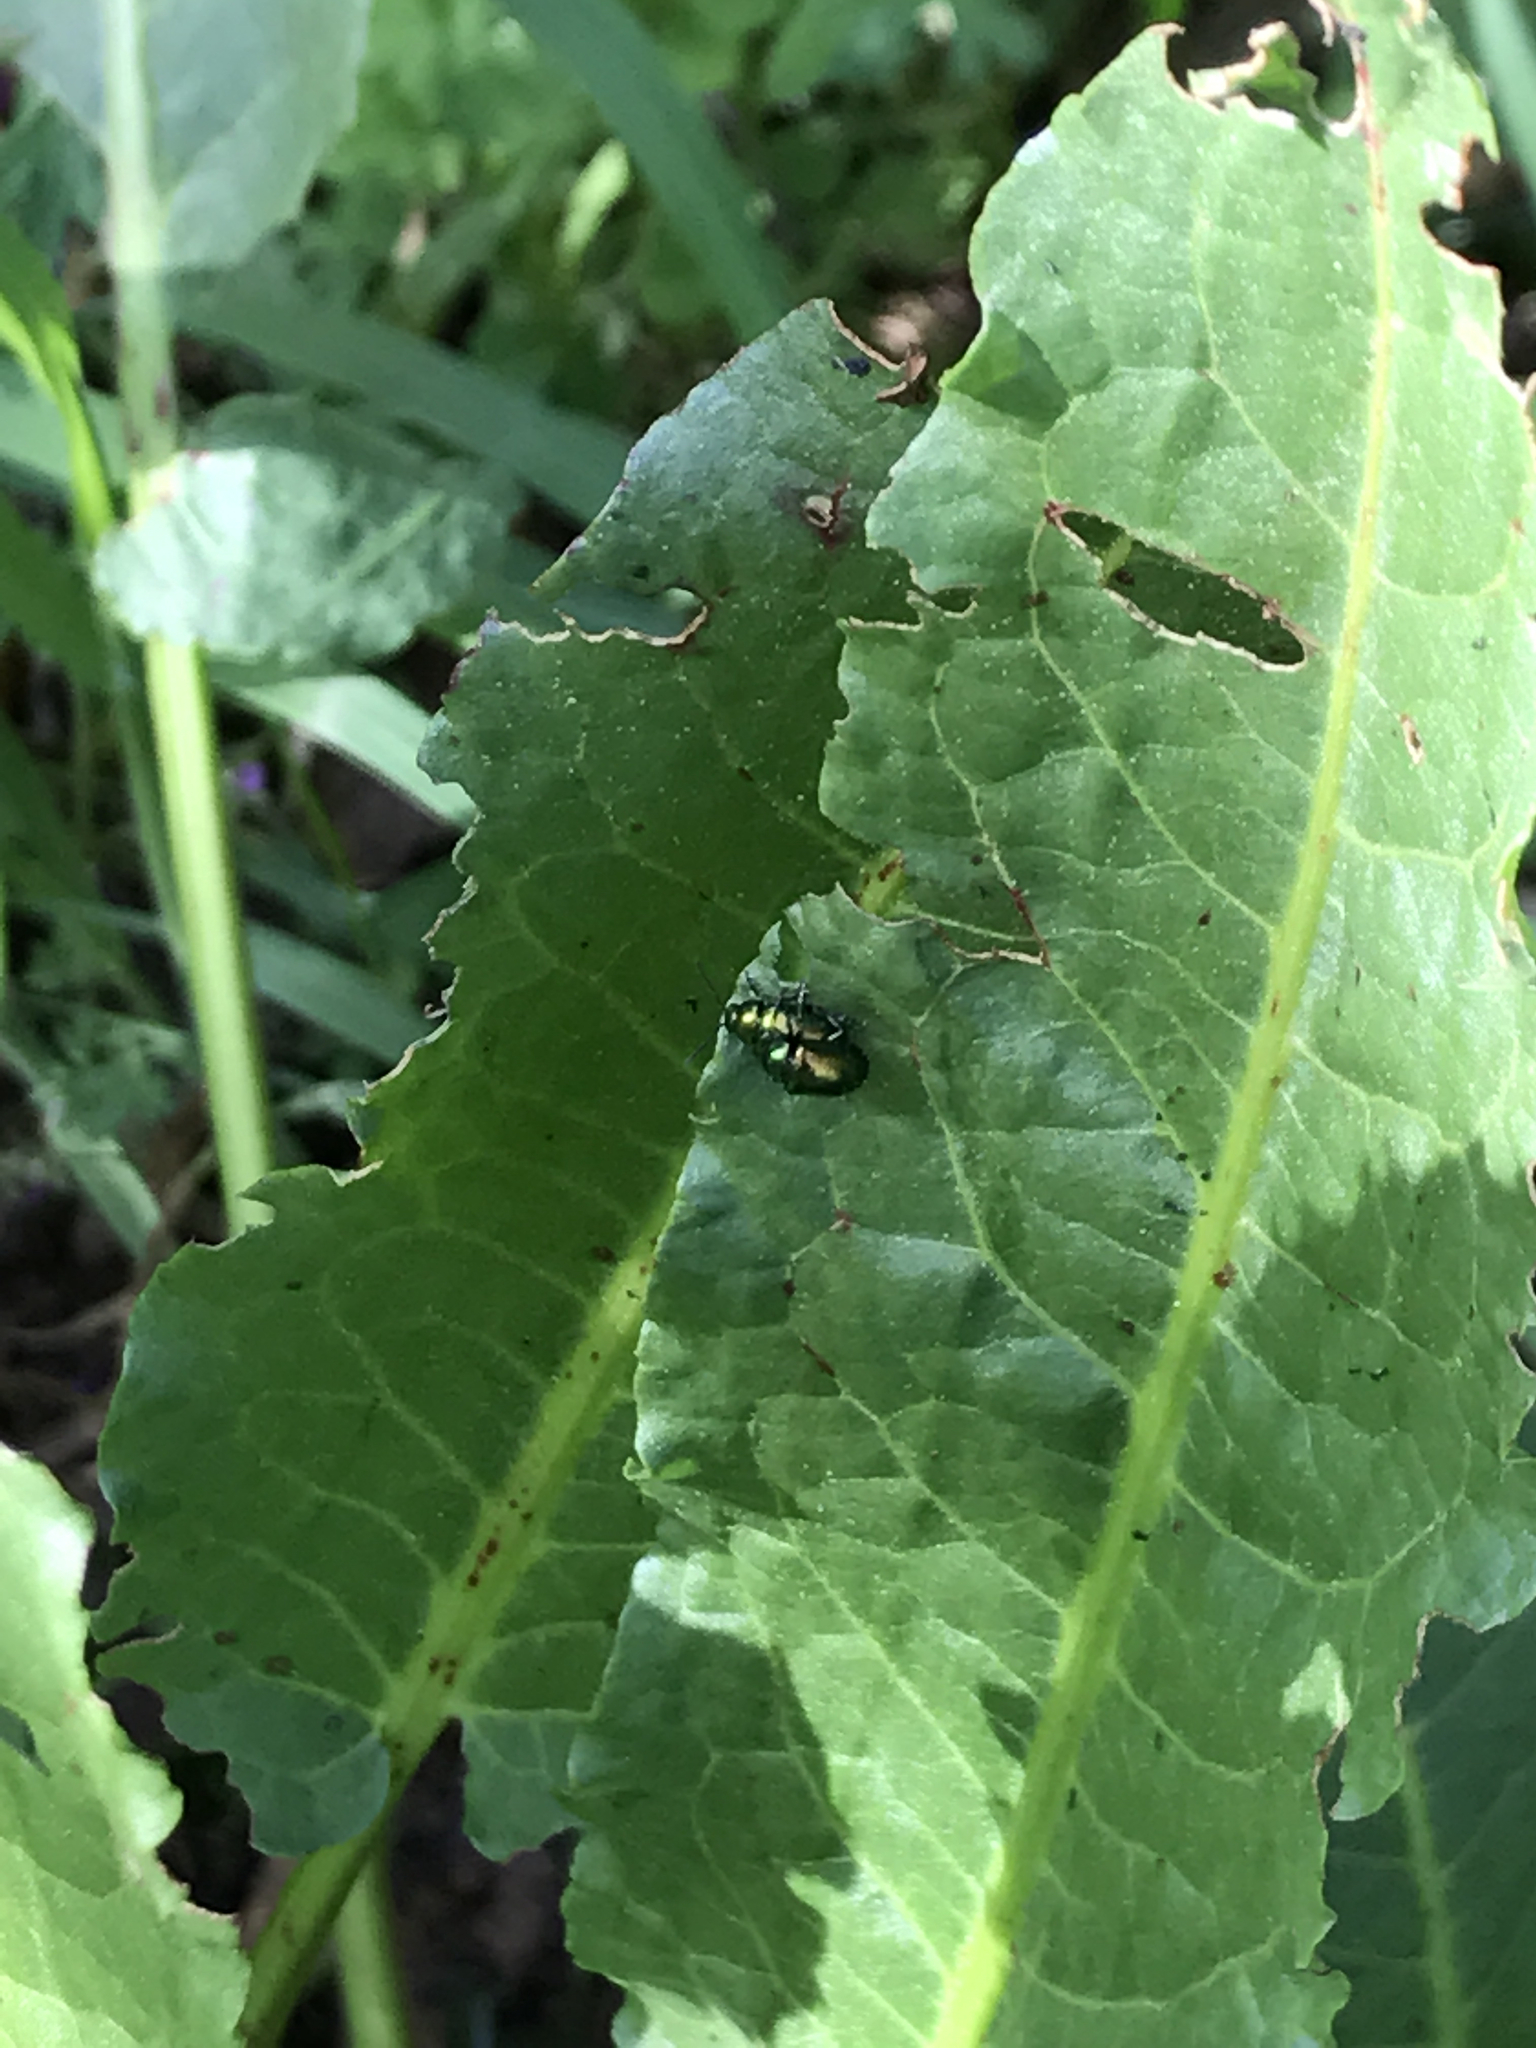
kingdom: Animalia
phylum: Arthropoda
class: Insecta
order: Coleoptera
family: Chrysomelidae
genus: Gastrophysa
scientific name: Gastrophysa cyanea
